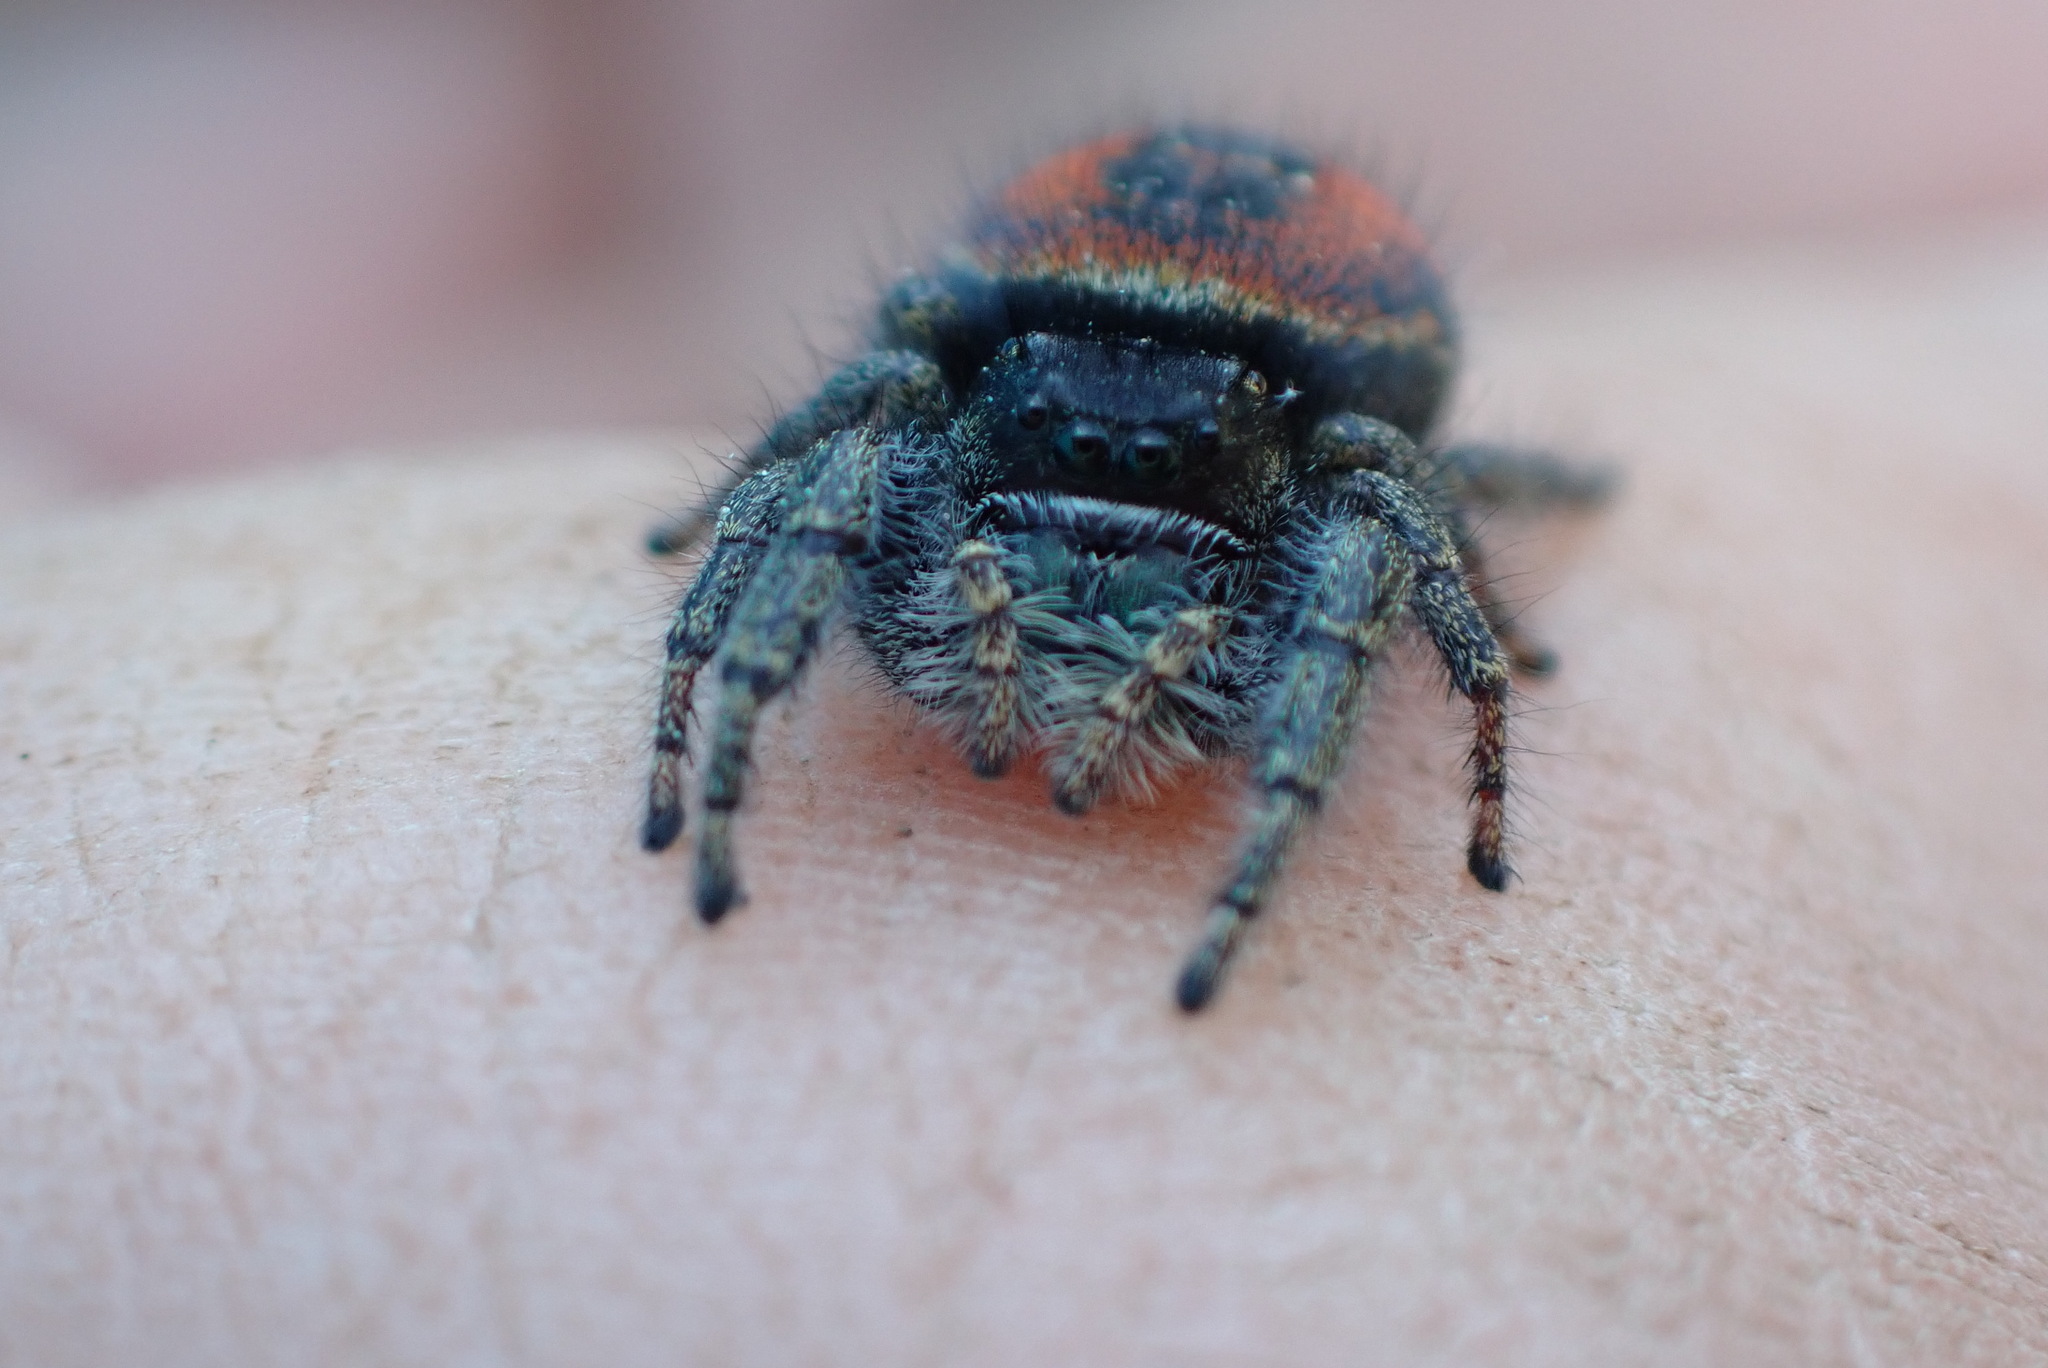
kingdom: Animalia
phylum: Arthropoda
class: Arachnida
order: Araneae
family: Salticidae
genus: Phidippus
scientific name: Phidippus johnsoni
